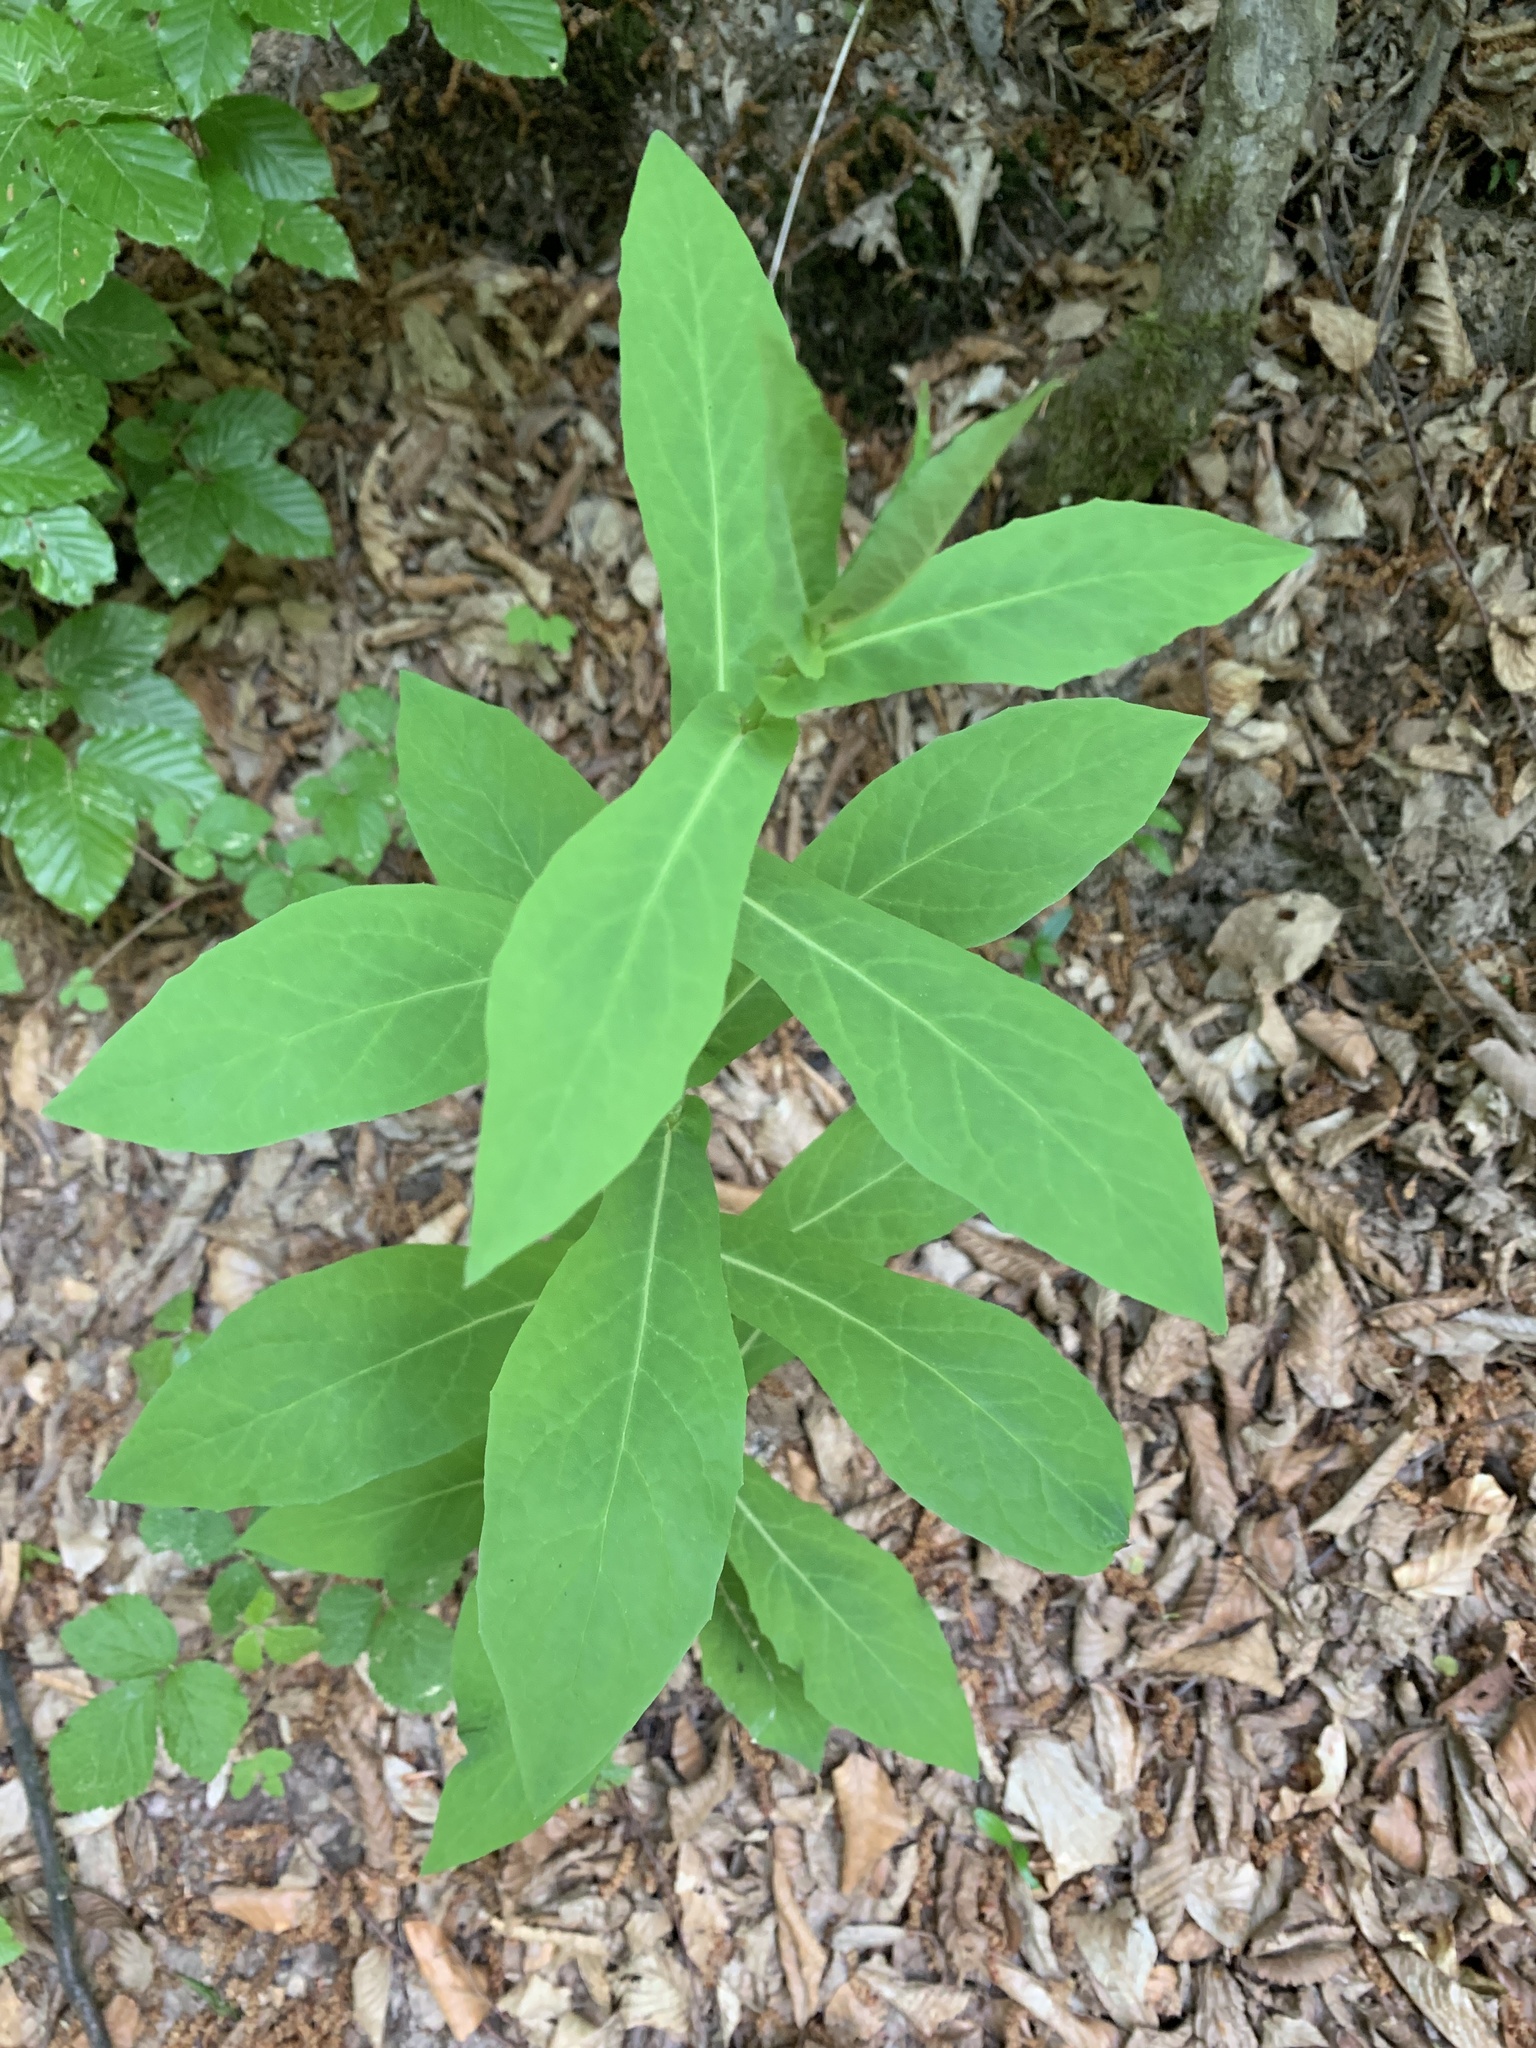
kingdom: Plantae
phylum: Tracheophyta
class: Magnoliopsida
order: Asterales
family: Asteraceae
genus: Prenanthes
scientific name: Prenanthes purpurea
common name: Purple lettuce
